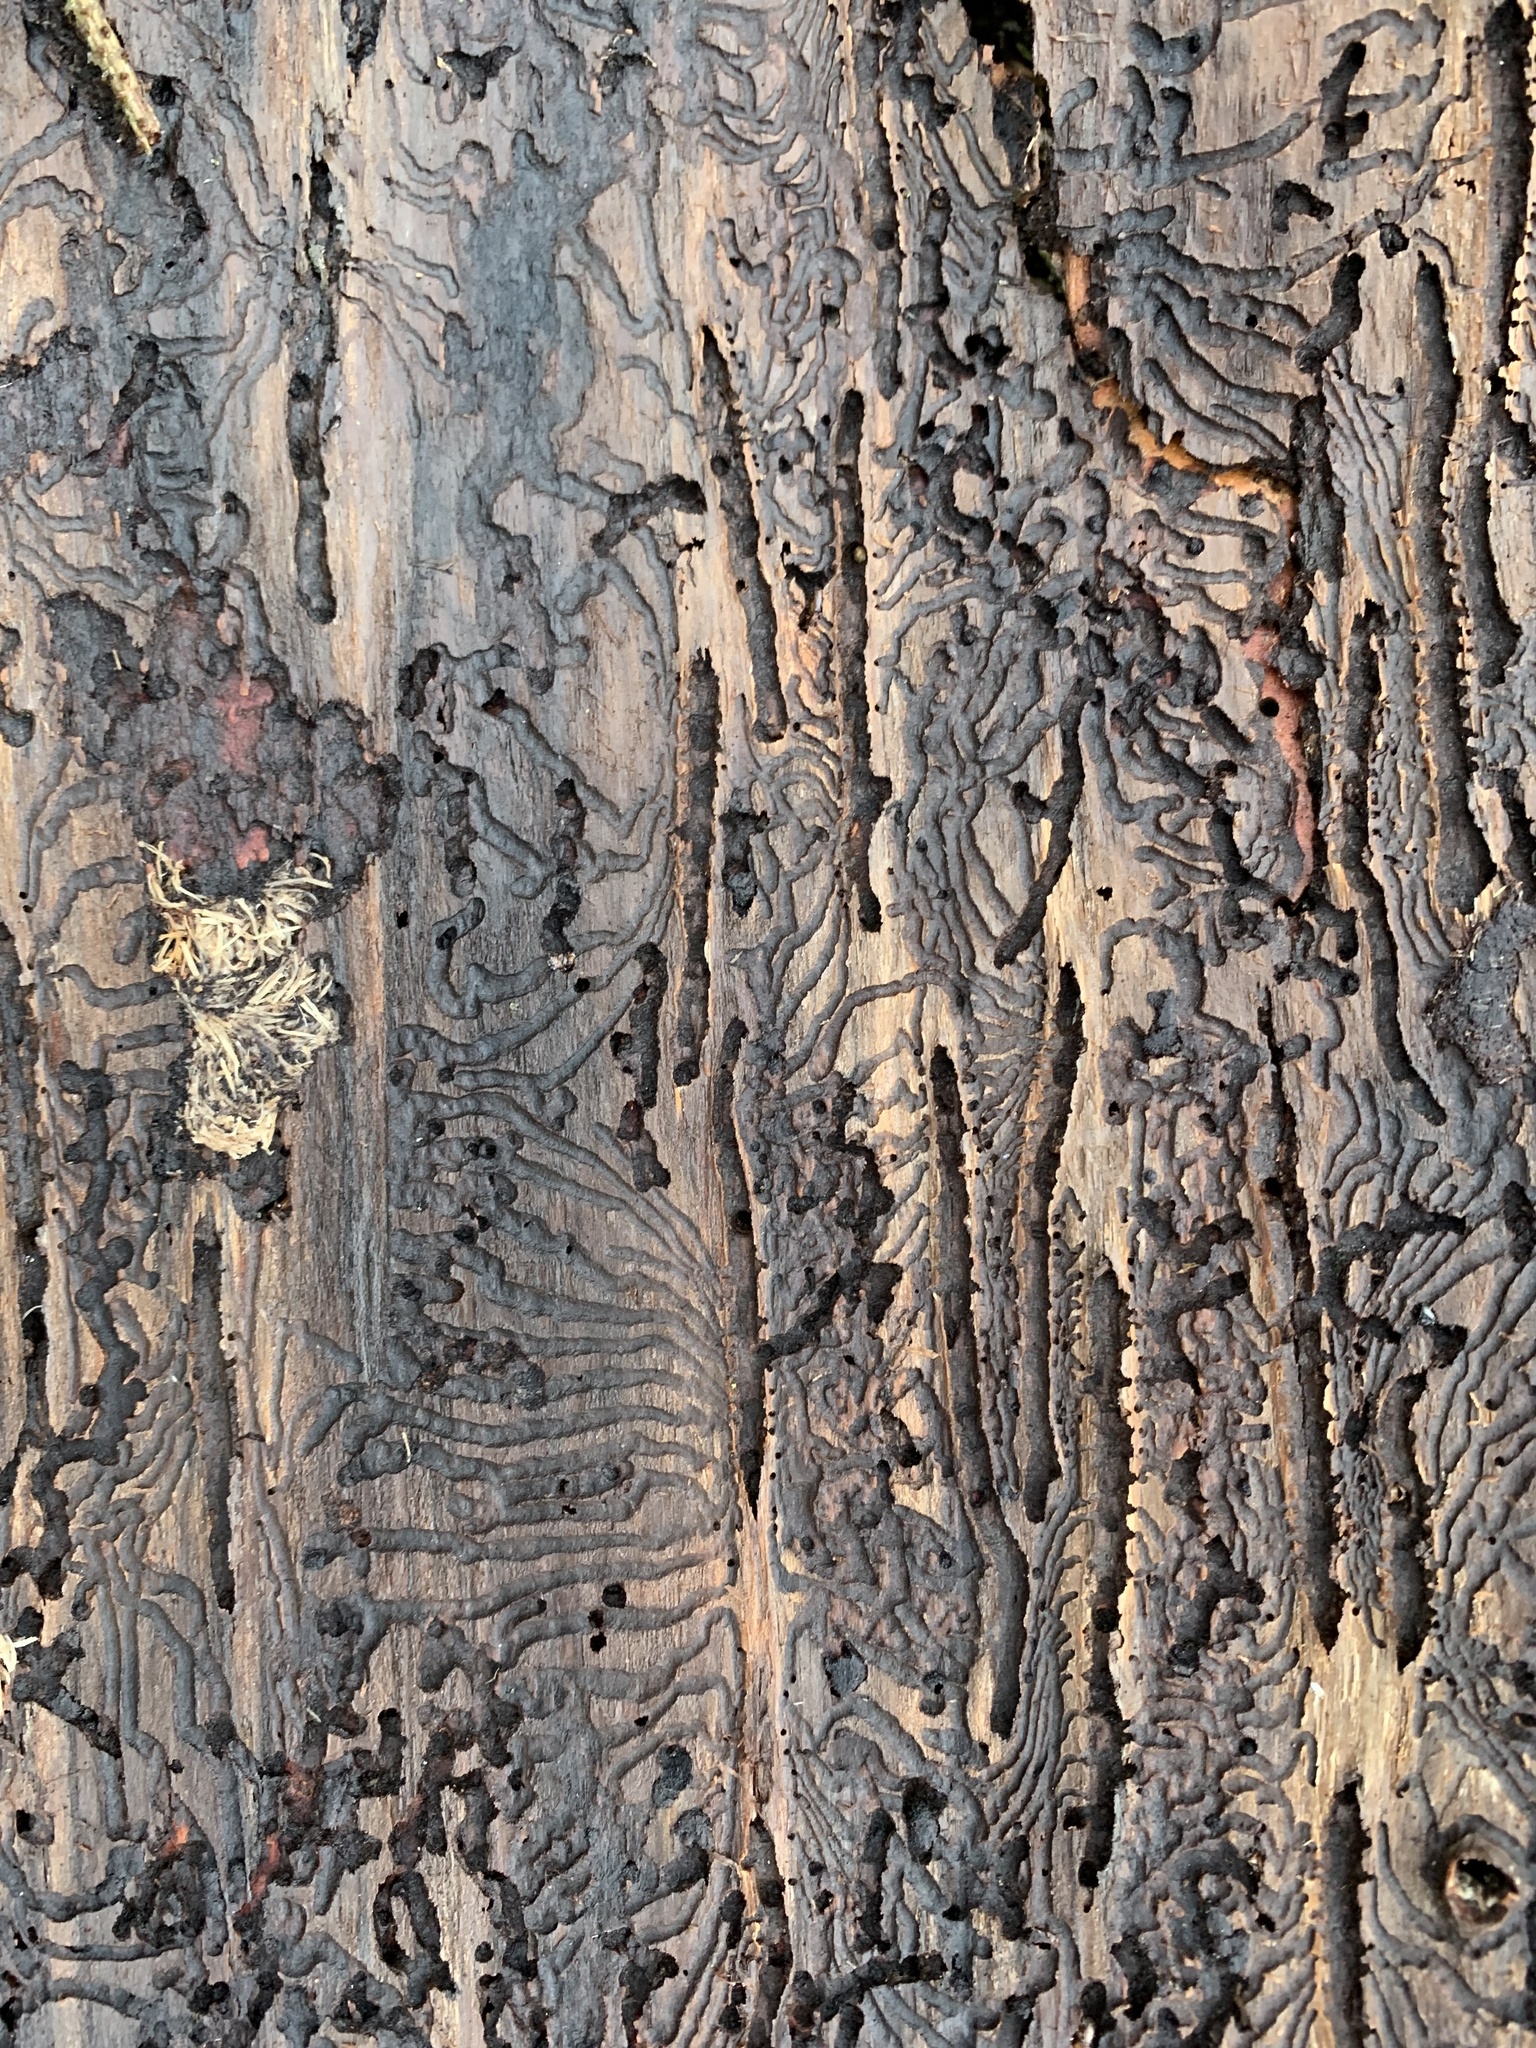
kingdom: Animalia
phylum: Arthropoda
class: Insecta
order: Coleoptera
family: Curculionidae
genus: Ips
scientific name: Ips typographus
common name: Eight-toothed spruce bark beetle
